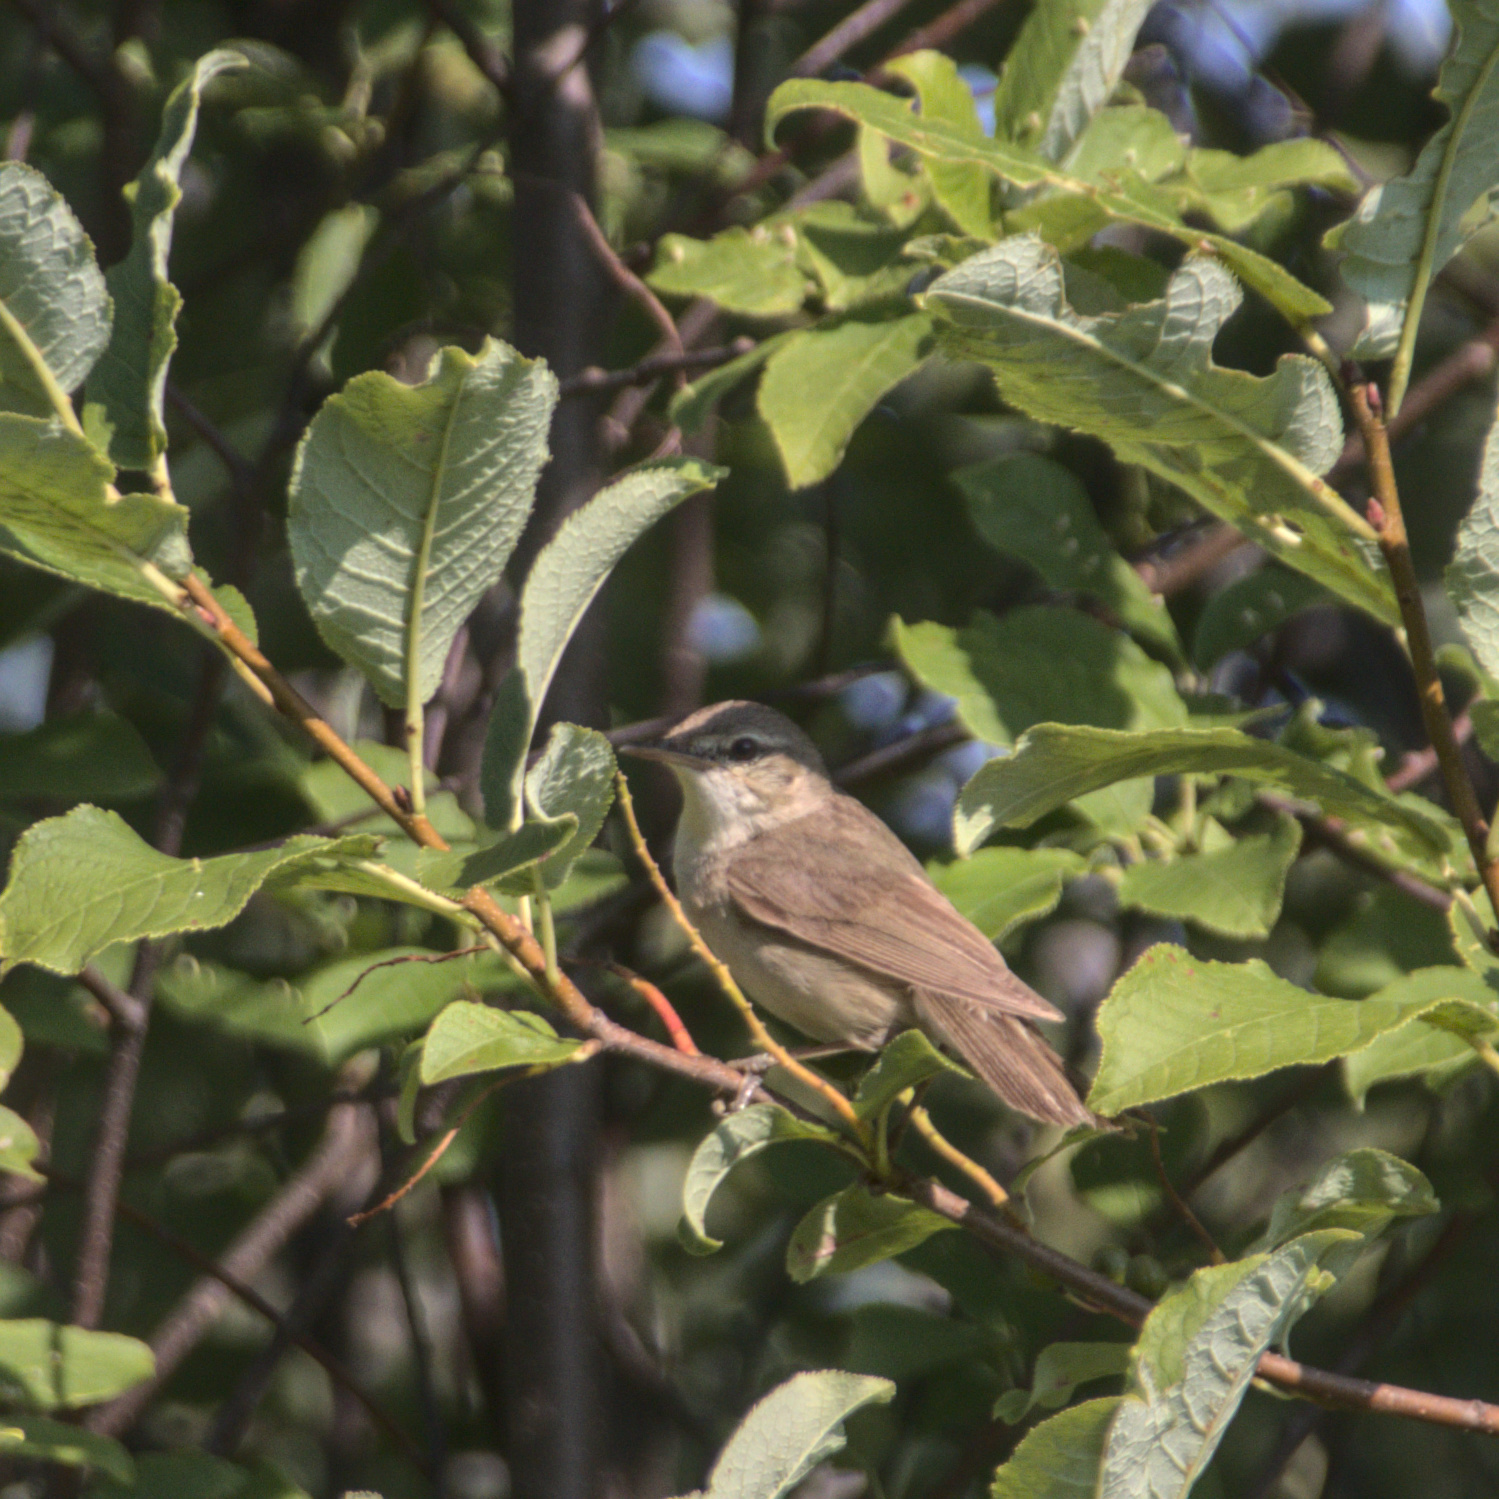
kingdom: Animalia
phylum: Chordata
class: Aves
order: Passeriformes
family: Acrocephalidae
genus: Acrocephalus
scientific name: Acrocephalus dumetorum
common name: Blyth's reed warbler
